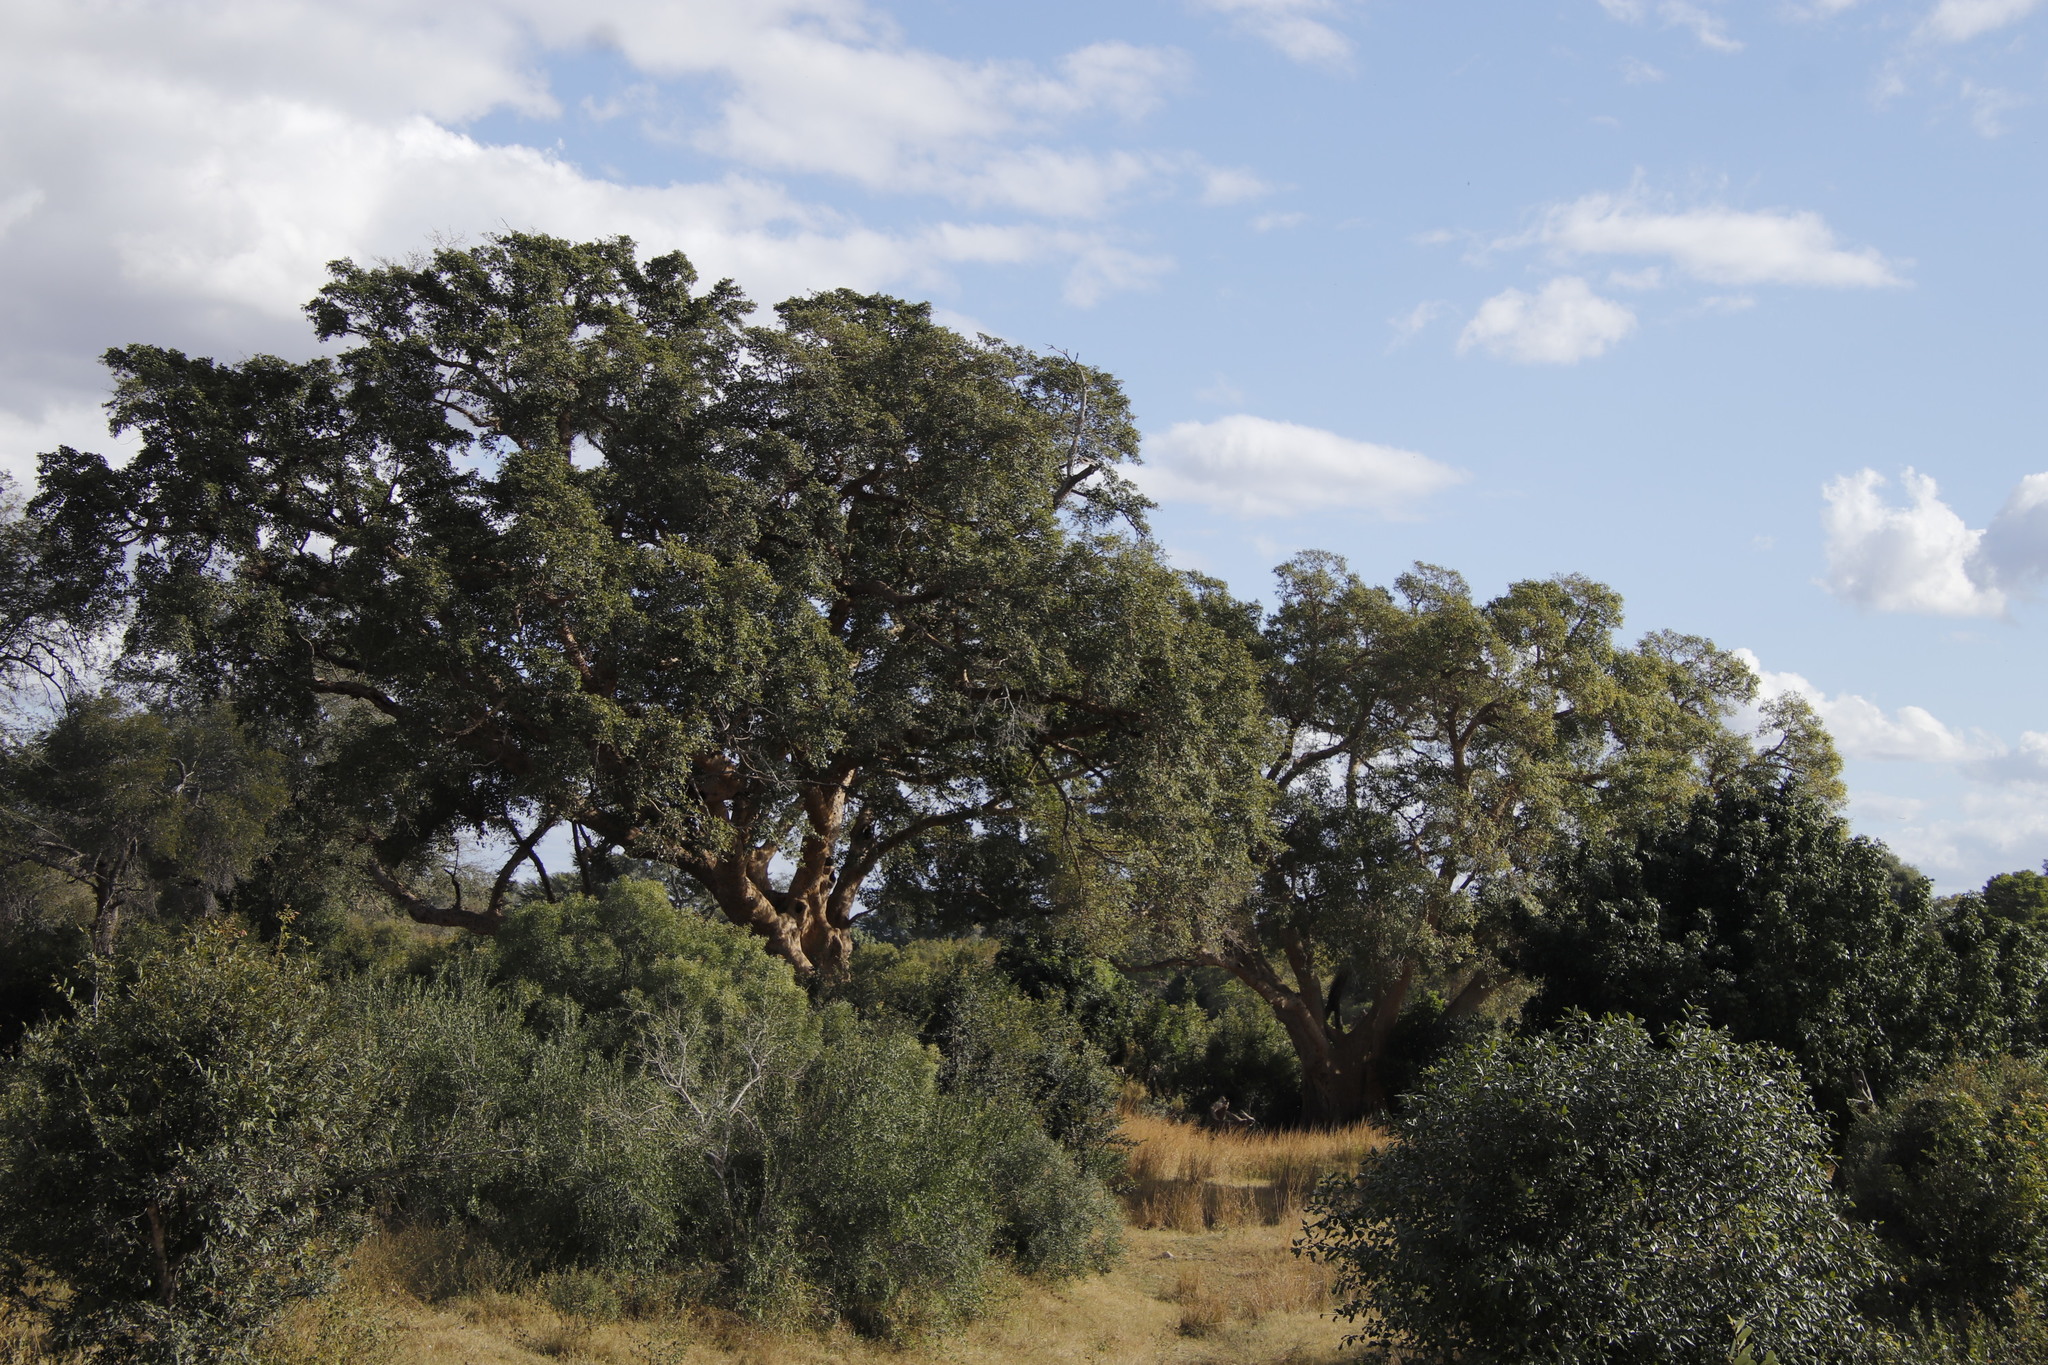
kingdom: Plantae
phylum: Tracheophyta
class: Magnoliopsida
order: Rosales
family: Moraceae
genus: Ficus
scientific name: Ficus sycomorus
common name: Sycomore
